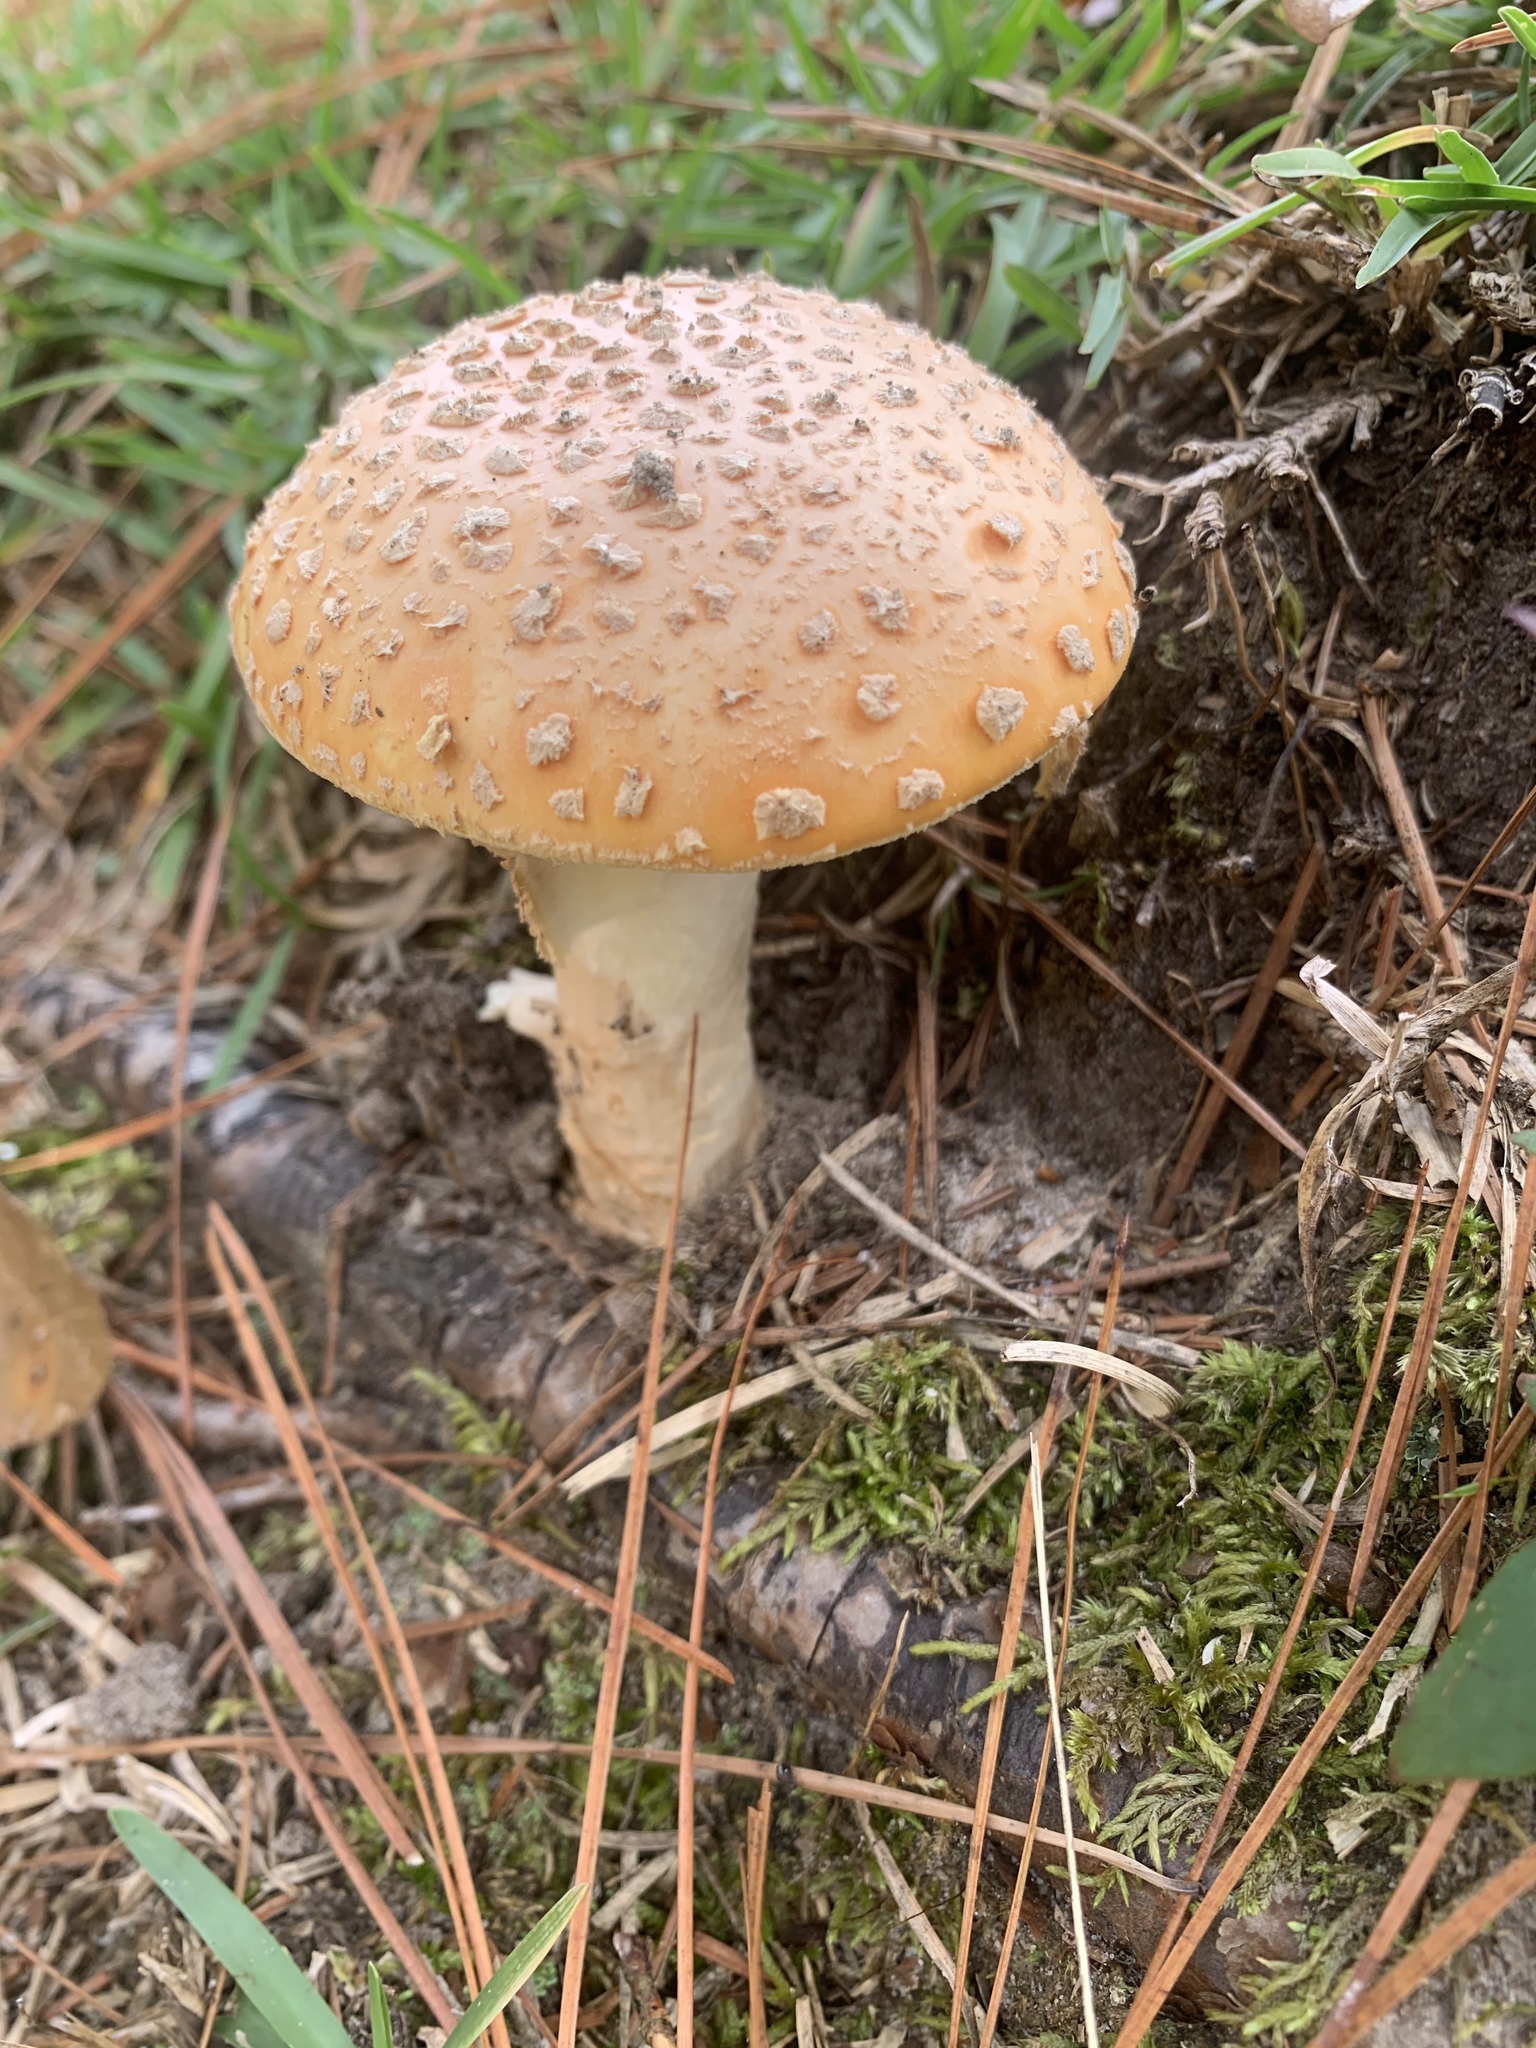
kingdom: Fungi
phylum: Basidiomycota
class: Agaricomycetes
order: Agaricales
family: Amanitaceae
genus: Amanita
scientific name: Amanita persicina
